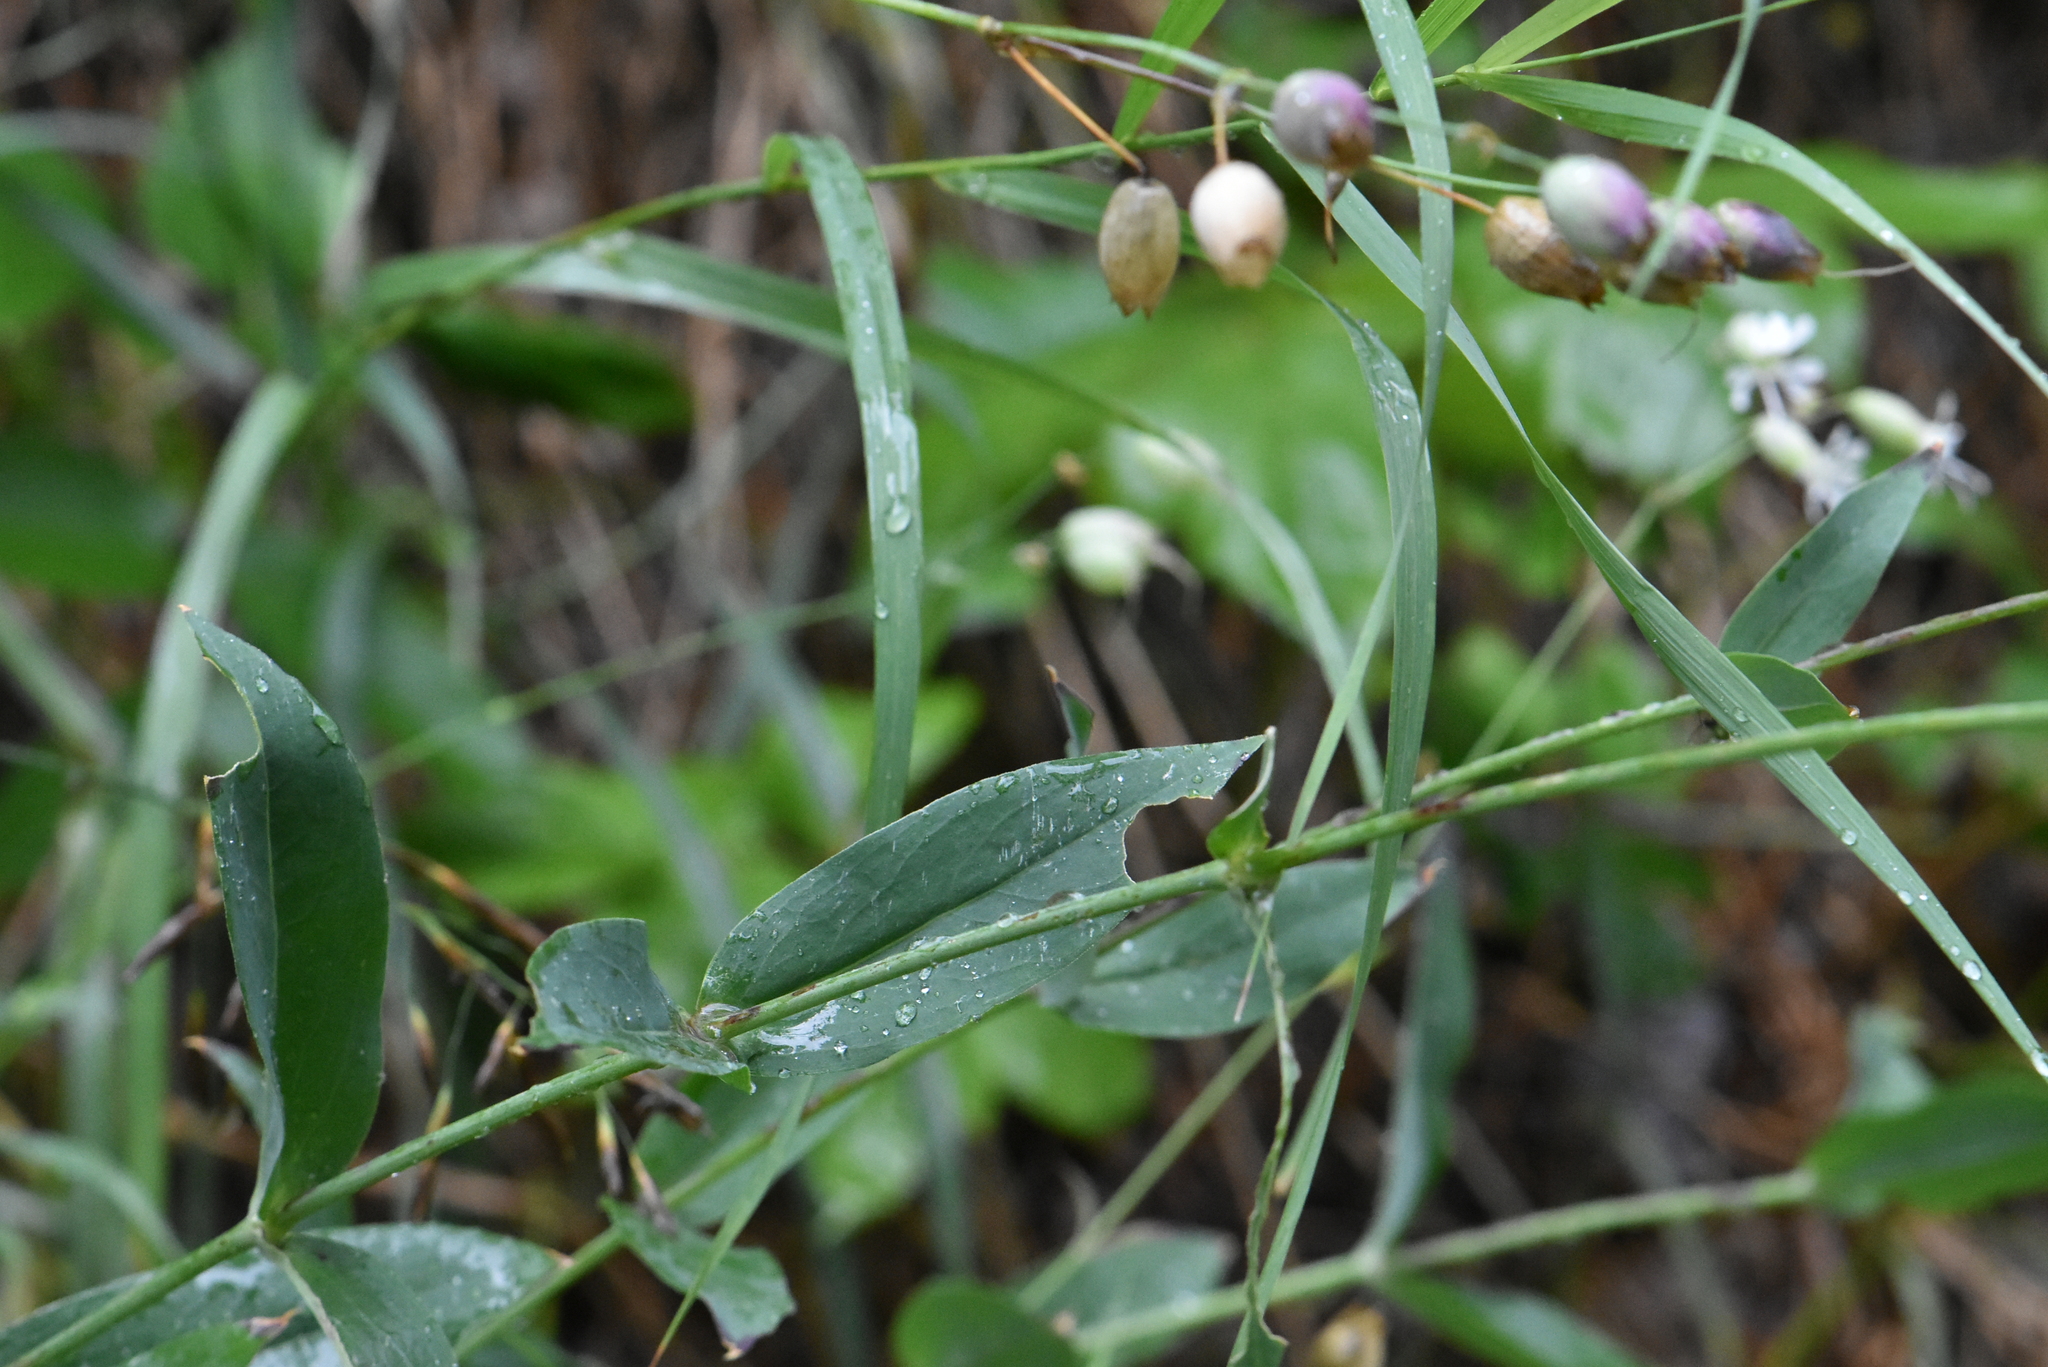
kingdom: Plantae
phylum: Tracheophyta
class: Magnoliopsida
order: Caryophyllales
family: Caryophyllaceae
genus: Silene
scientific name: Silene vulgaris
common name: Bladder campion
